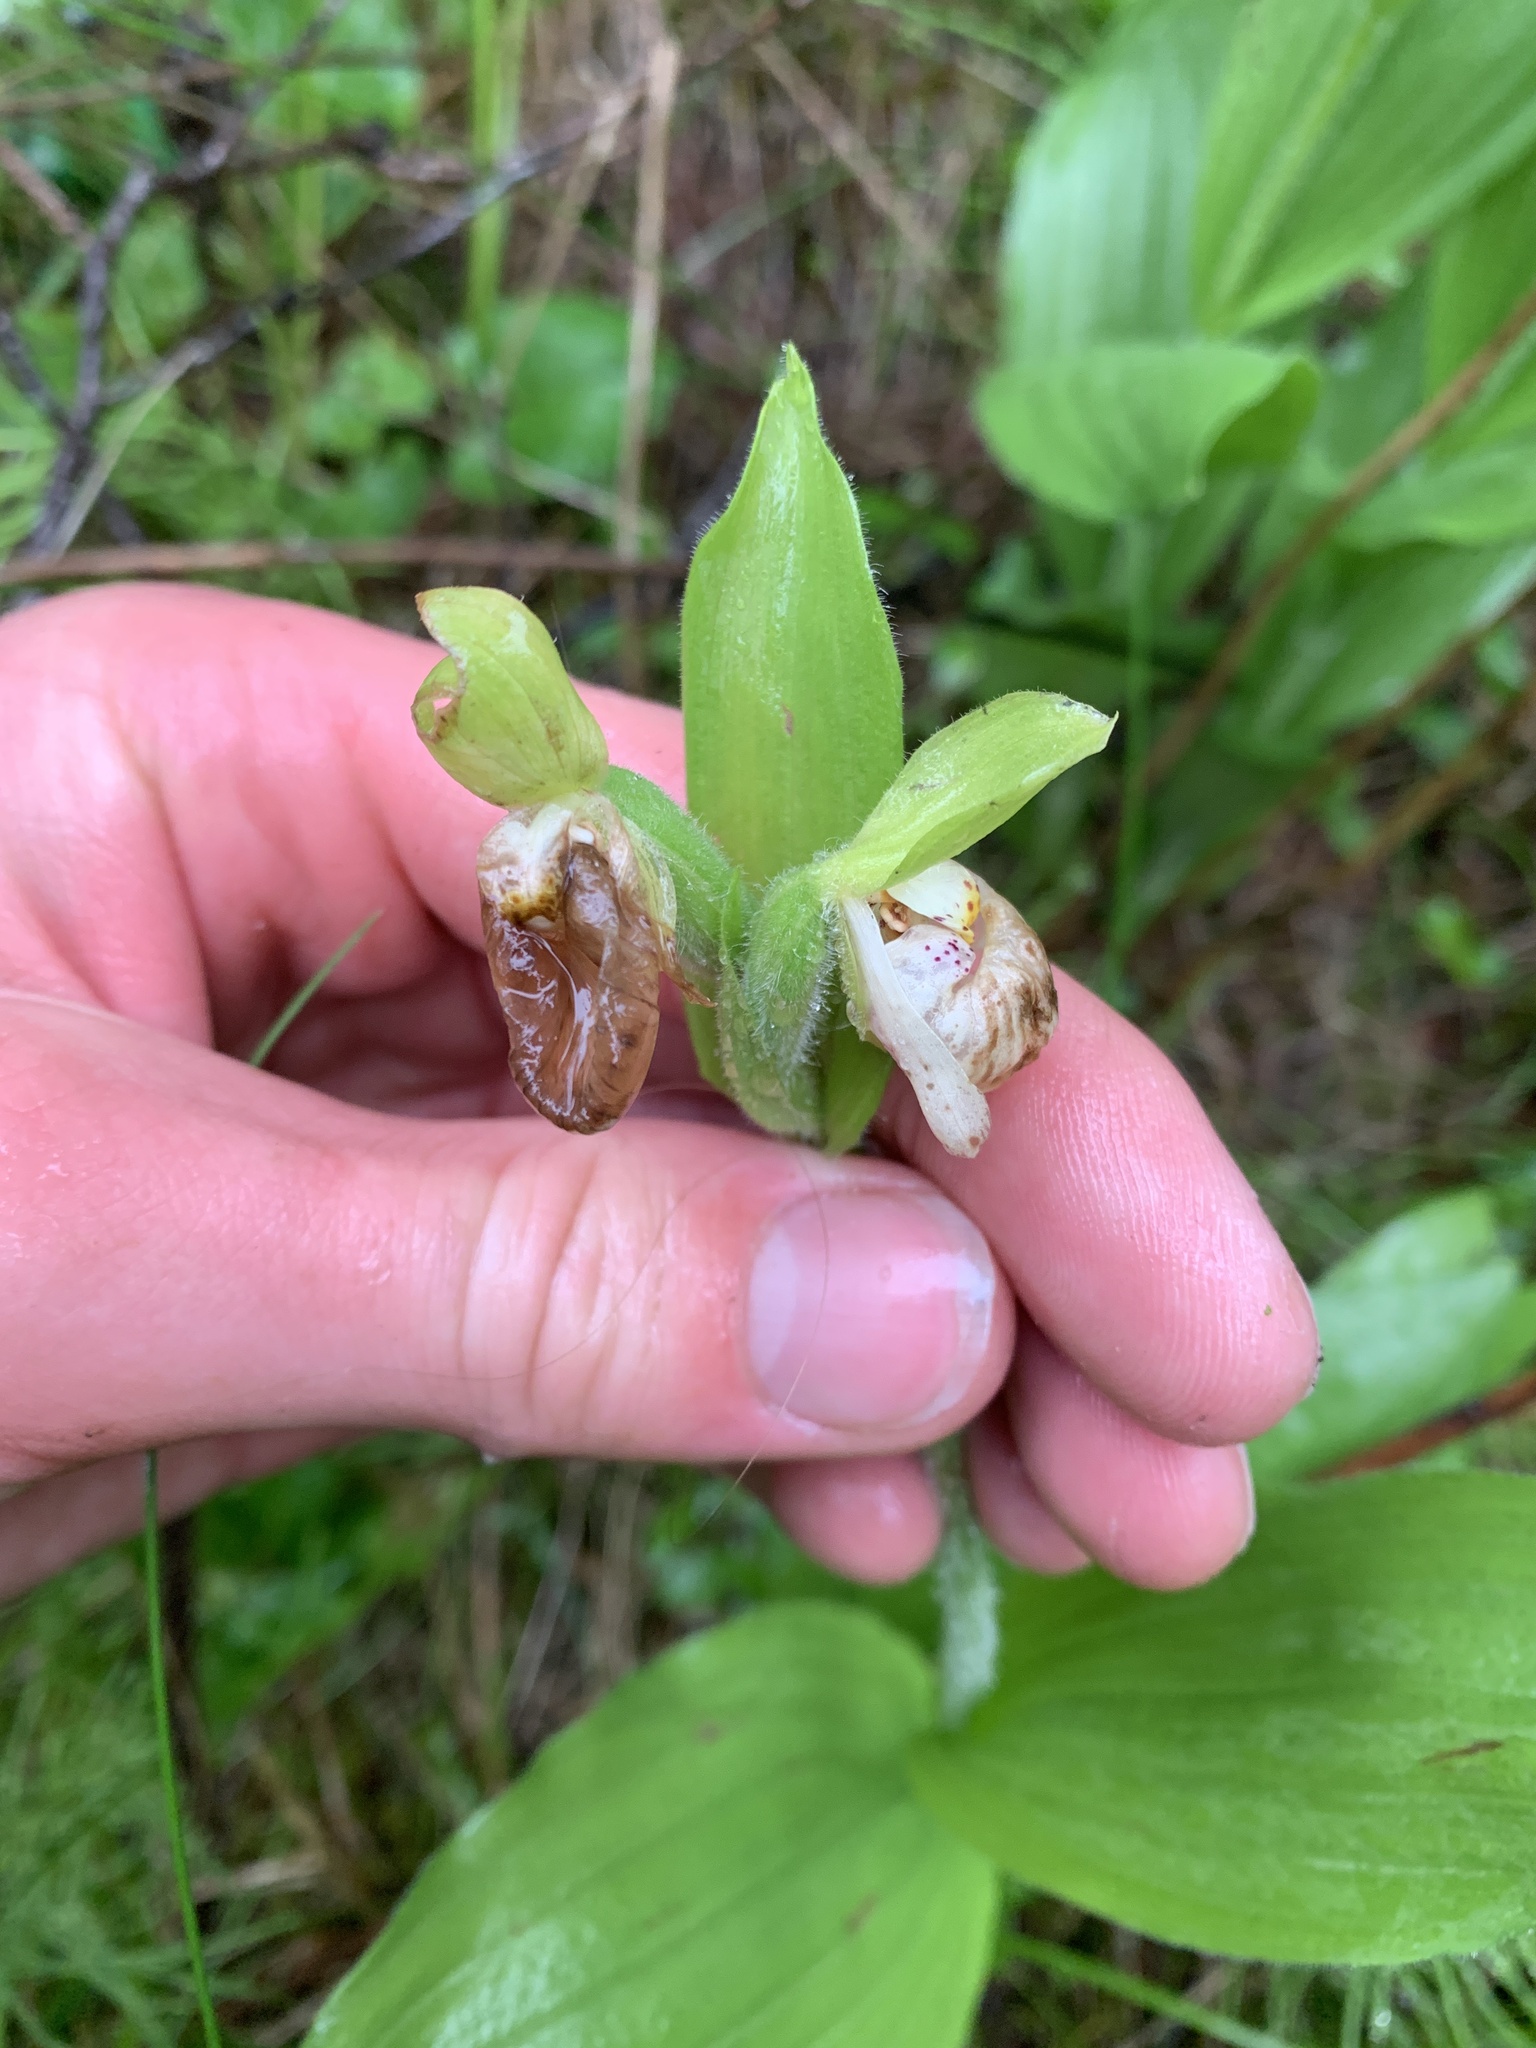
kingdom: Plantae
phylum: Tracheophyta
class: Liliopsida
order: Asparagales
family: Orchidaceae
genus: Cypripedium
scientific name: Cypripedium passerinum
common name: Sparrow's-egg lady's-slipper
